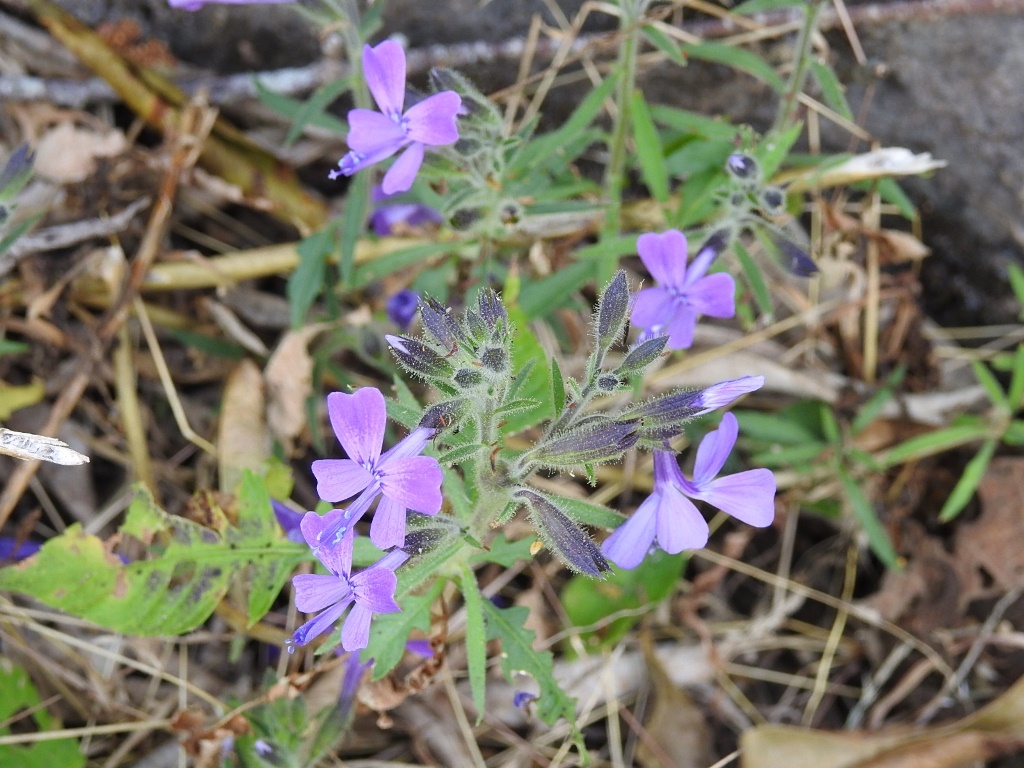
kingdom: Plantae
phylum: Tracheophyta
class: Magnoliopsida
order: Ericales
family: Polemoniaceae
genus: Bonplandia
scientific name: Bonplandia geminiflora
